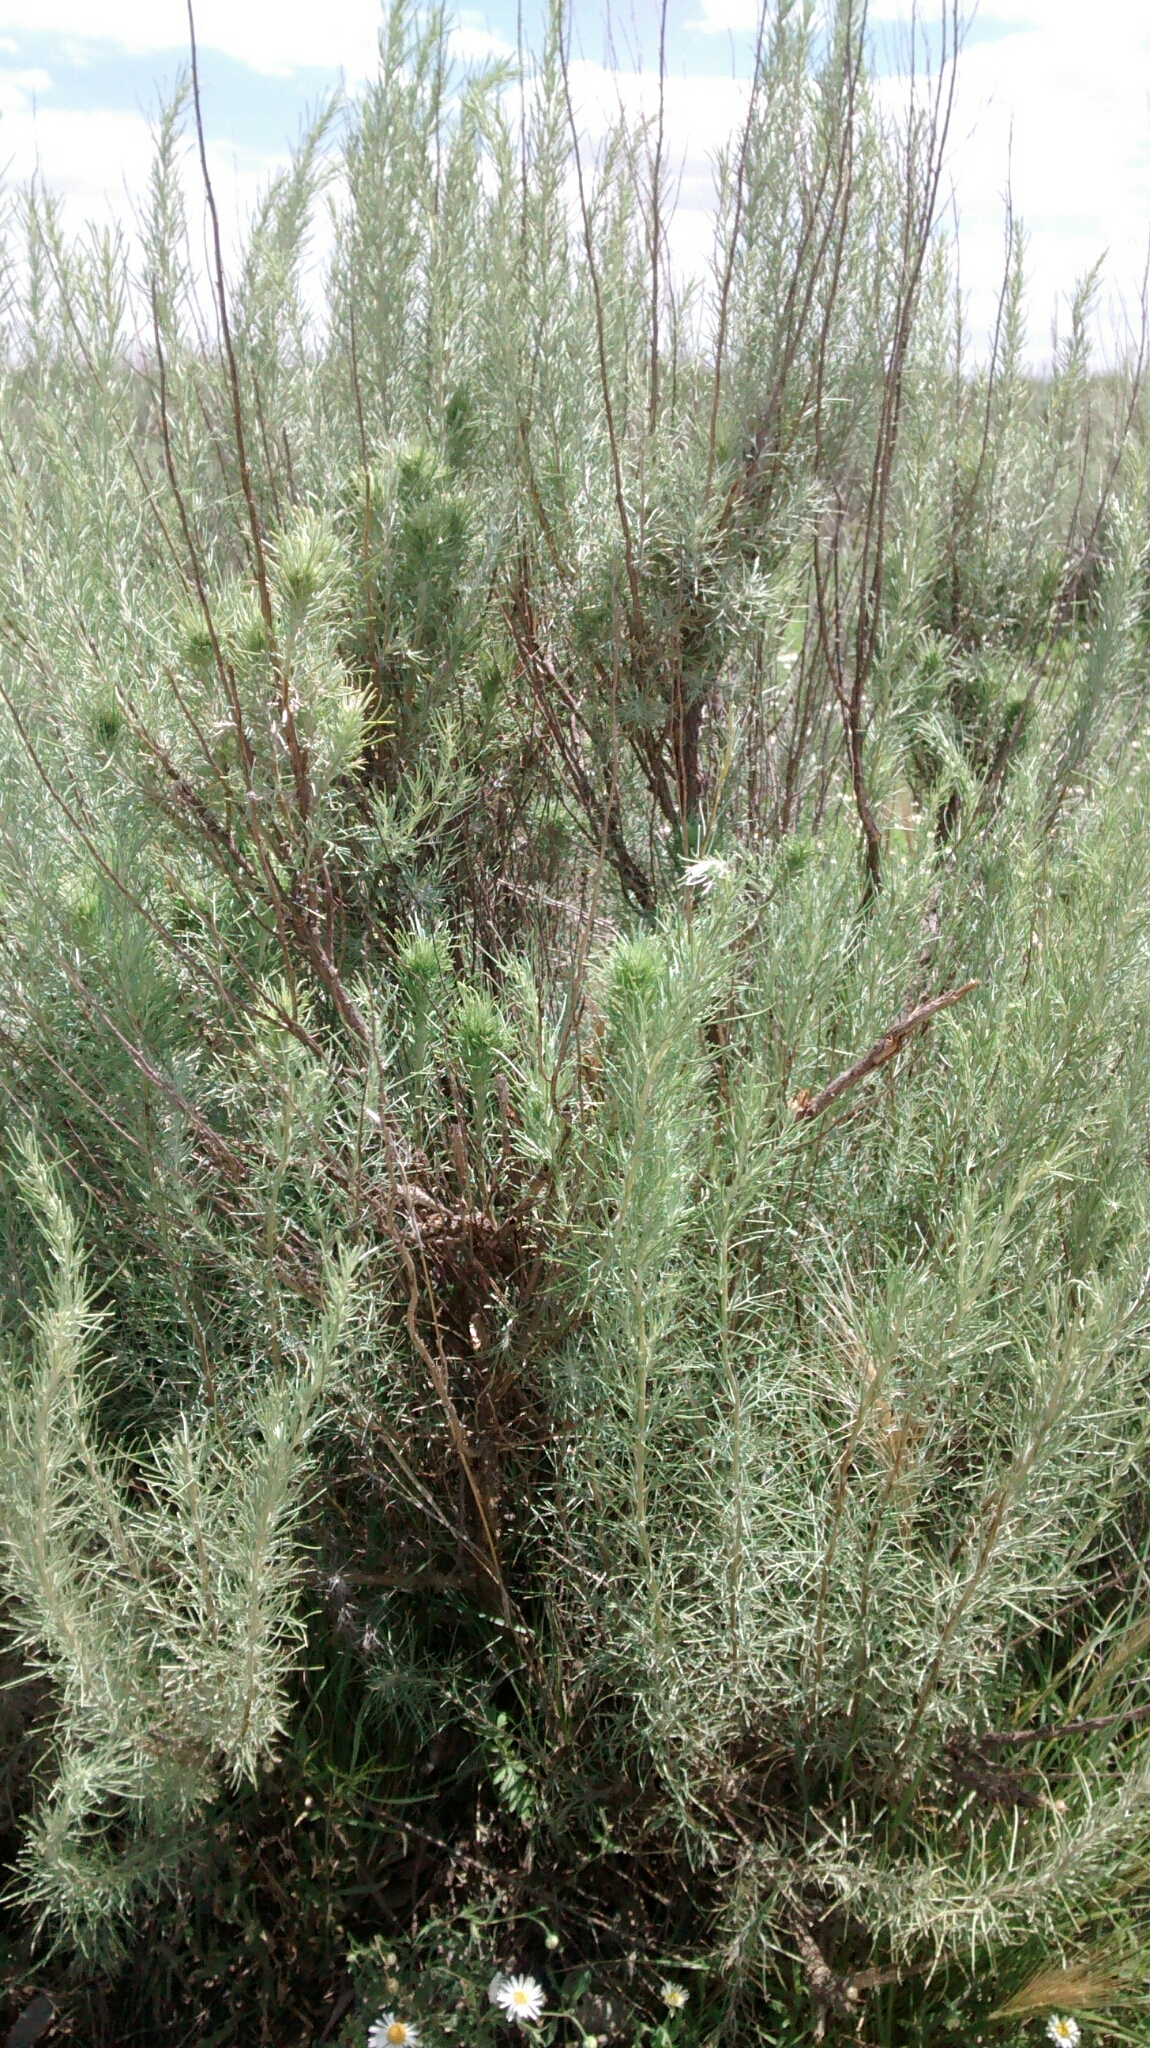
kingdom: Plantae
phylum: Tracheophyta
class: Magnoliopsida
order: Asterales
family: Asteraceae
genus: Artemisia
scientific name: Artemisia filifolia
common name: Sand-sage
